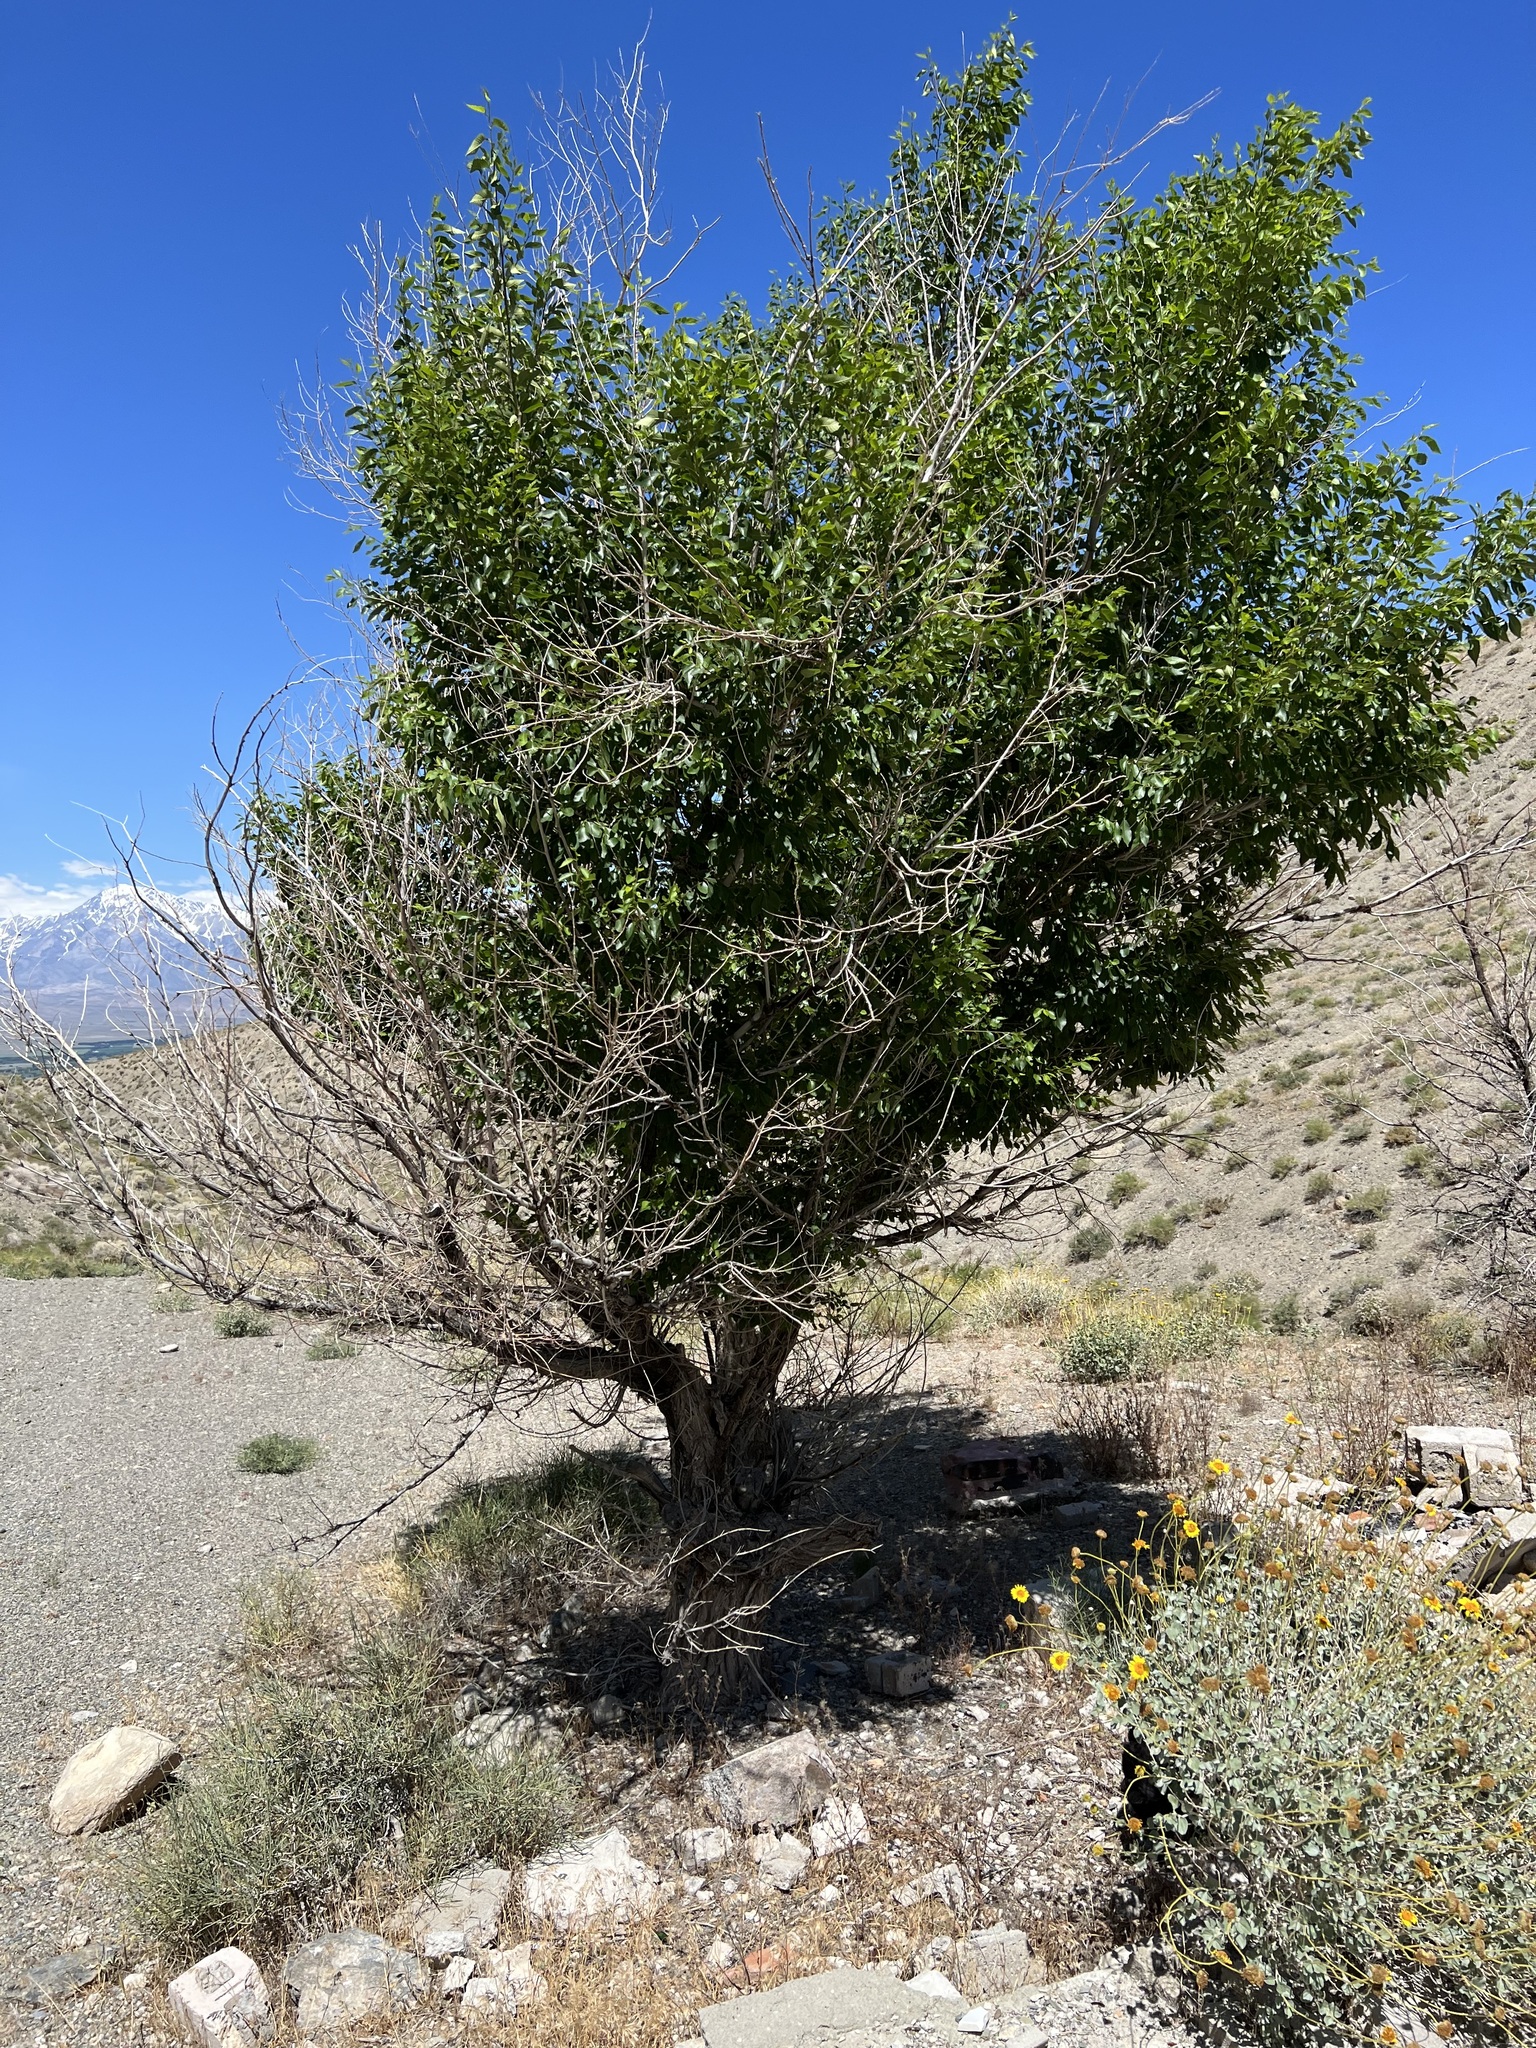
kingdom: Plantae
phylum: Tracheophyta
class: Magnoliopsida
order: Rosales
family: Ulmaceae
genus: Ulmus
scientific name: Ulmus pumila
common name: Siberian elm
